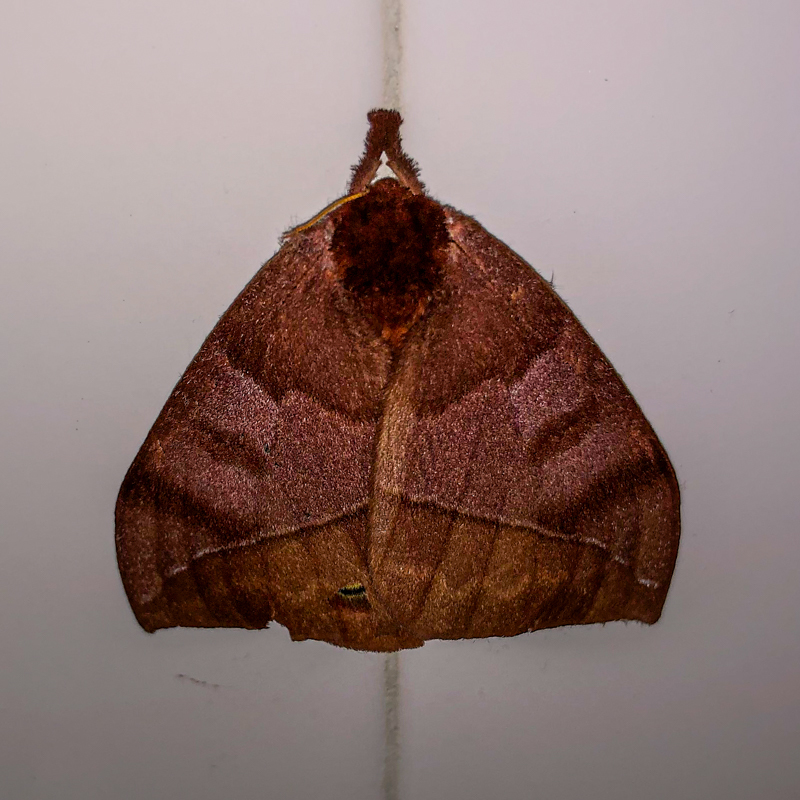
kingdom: Animalia
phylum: Arthropoda
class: Insecta
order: Lepidoptera
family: Saturniidae
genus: Automeris
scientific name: Automeris zurobara
